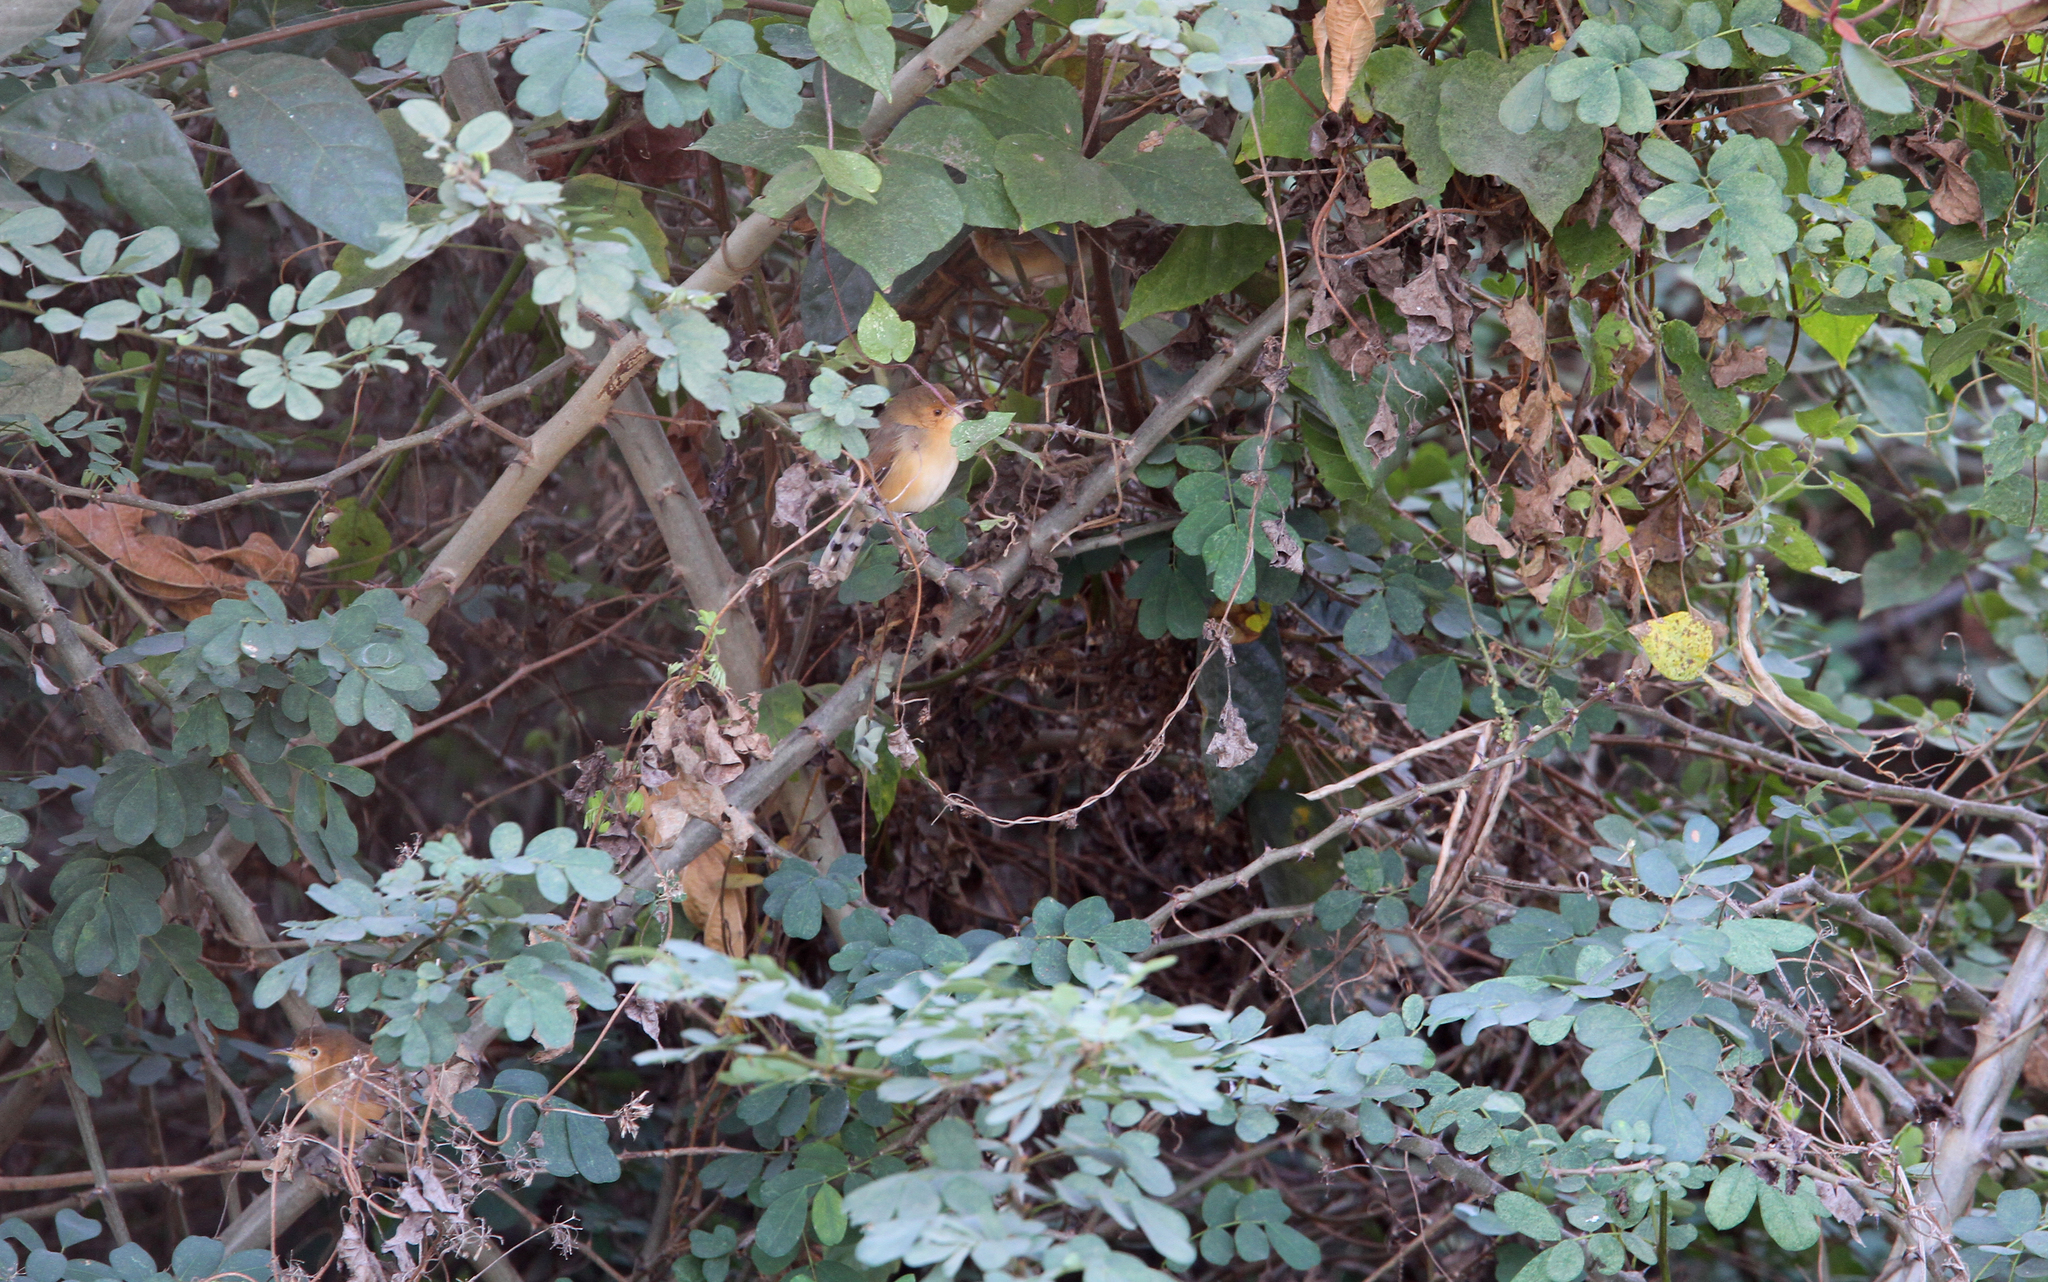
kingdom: Animalia
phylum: Chordata
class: Aves
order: Passeriformes
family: Cisticolidae
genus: Cisticola
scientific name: Cisticola erythrops
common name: Red-faced cisticola
